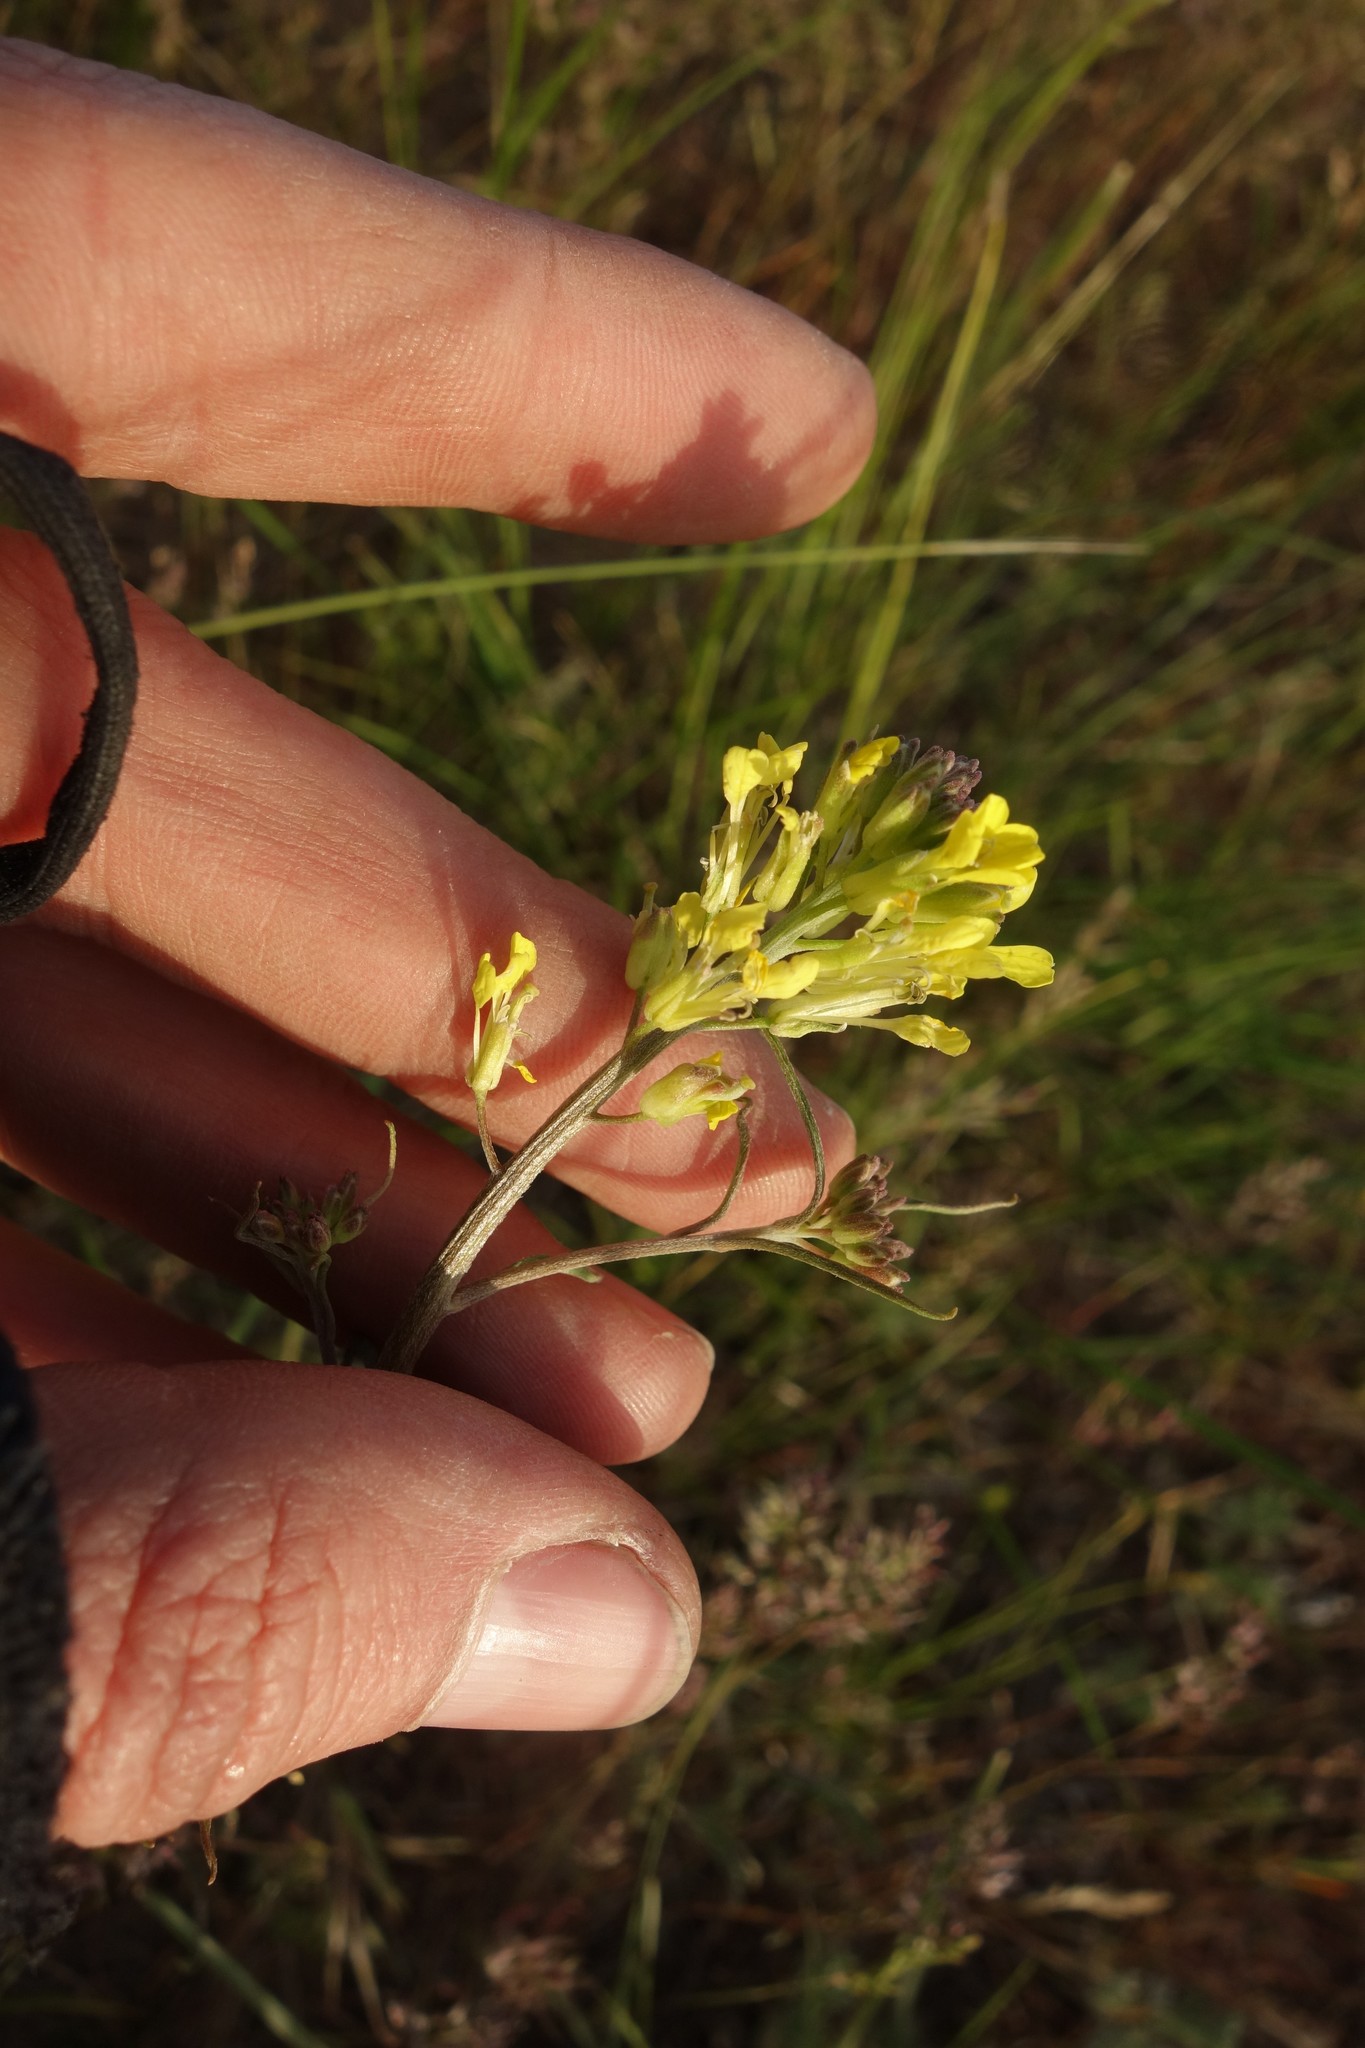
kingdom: Plantae
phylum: Tracheophyta
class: Magnoliopsida
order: Brassicales
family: Brassicaceae
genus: Erysimum
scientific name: Erysimum diffusum
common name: Diffuse wallflower
